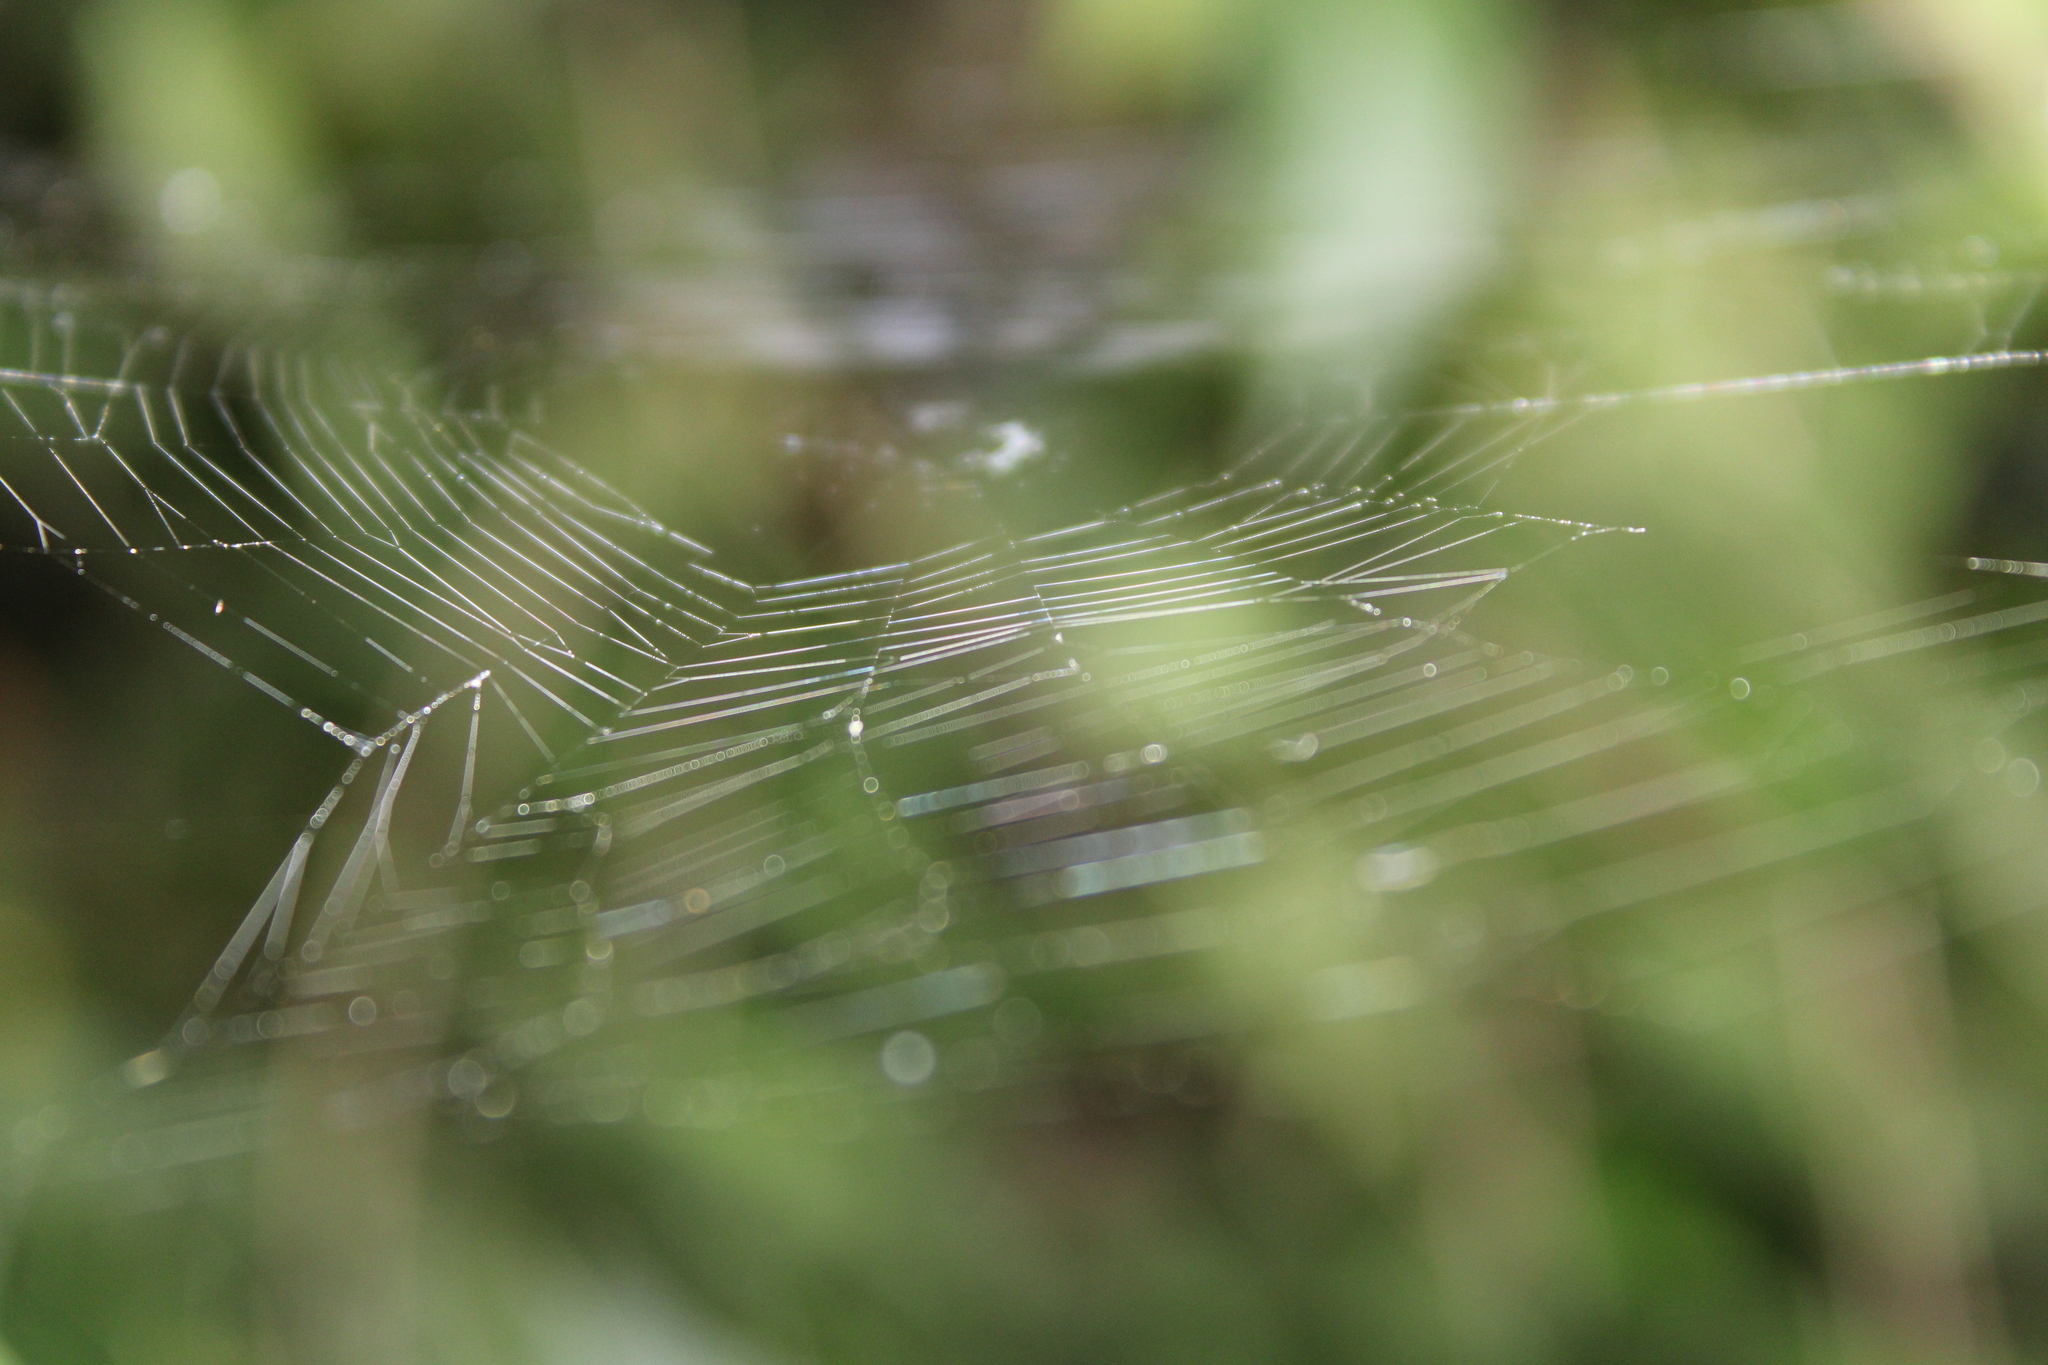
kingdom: Animalia
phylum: Arthropoda
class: Arachnida
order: Araneae
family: Tetragnathidae
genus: Leucauge
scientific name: Leucauge venusta
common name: Longjawed orb weavers
